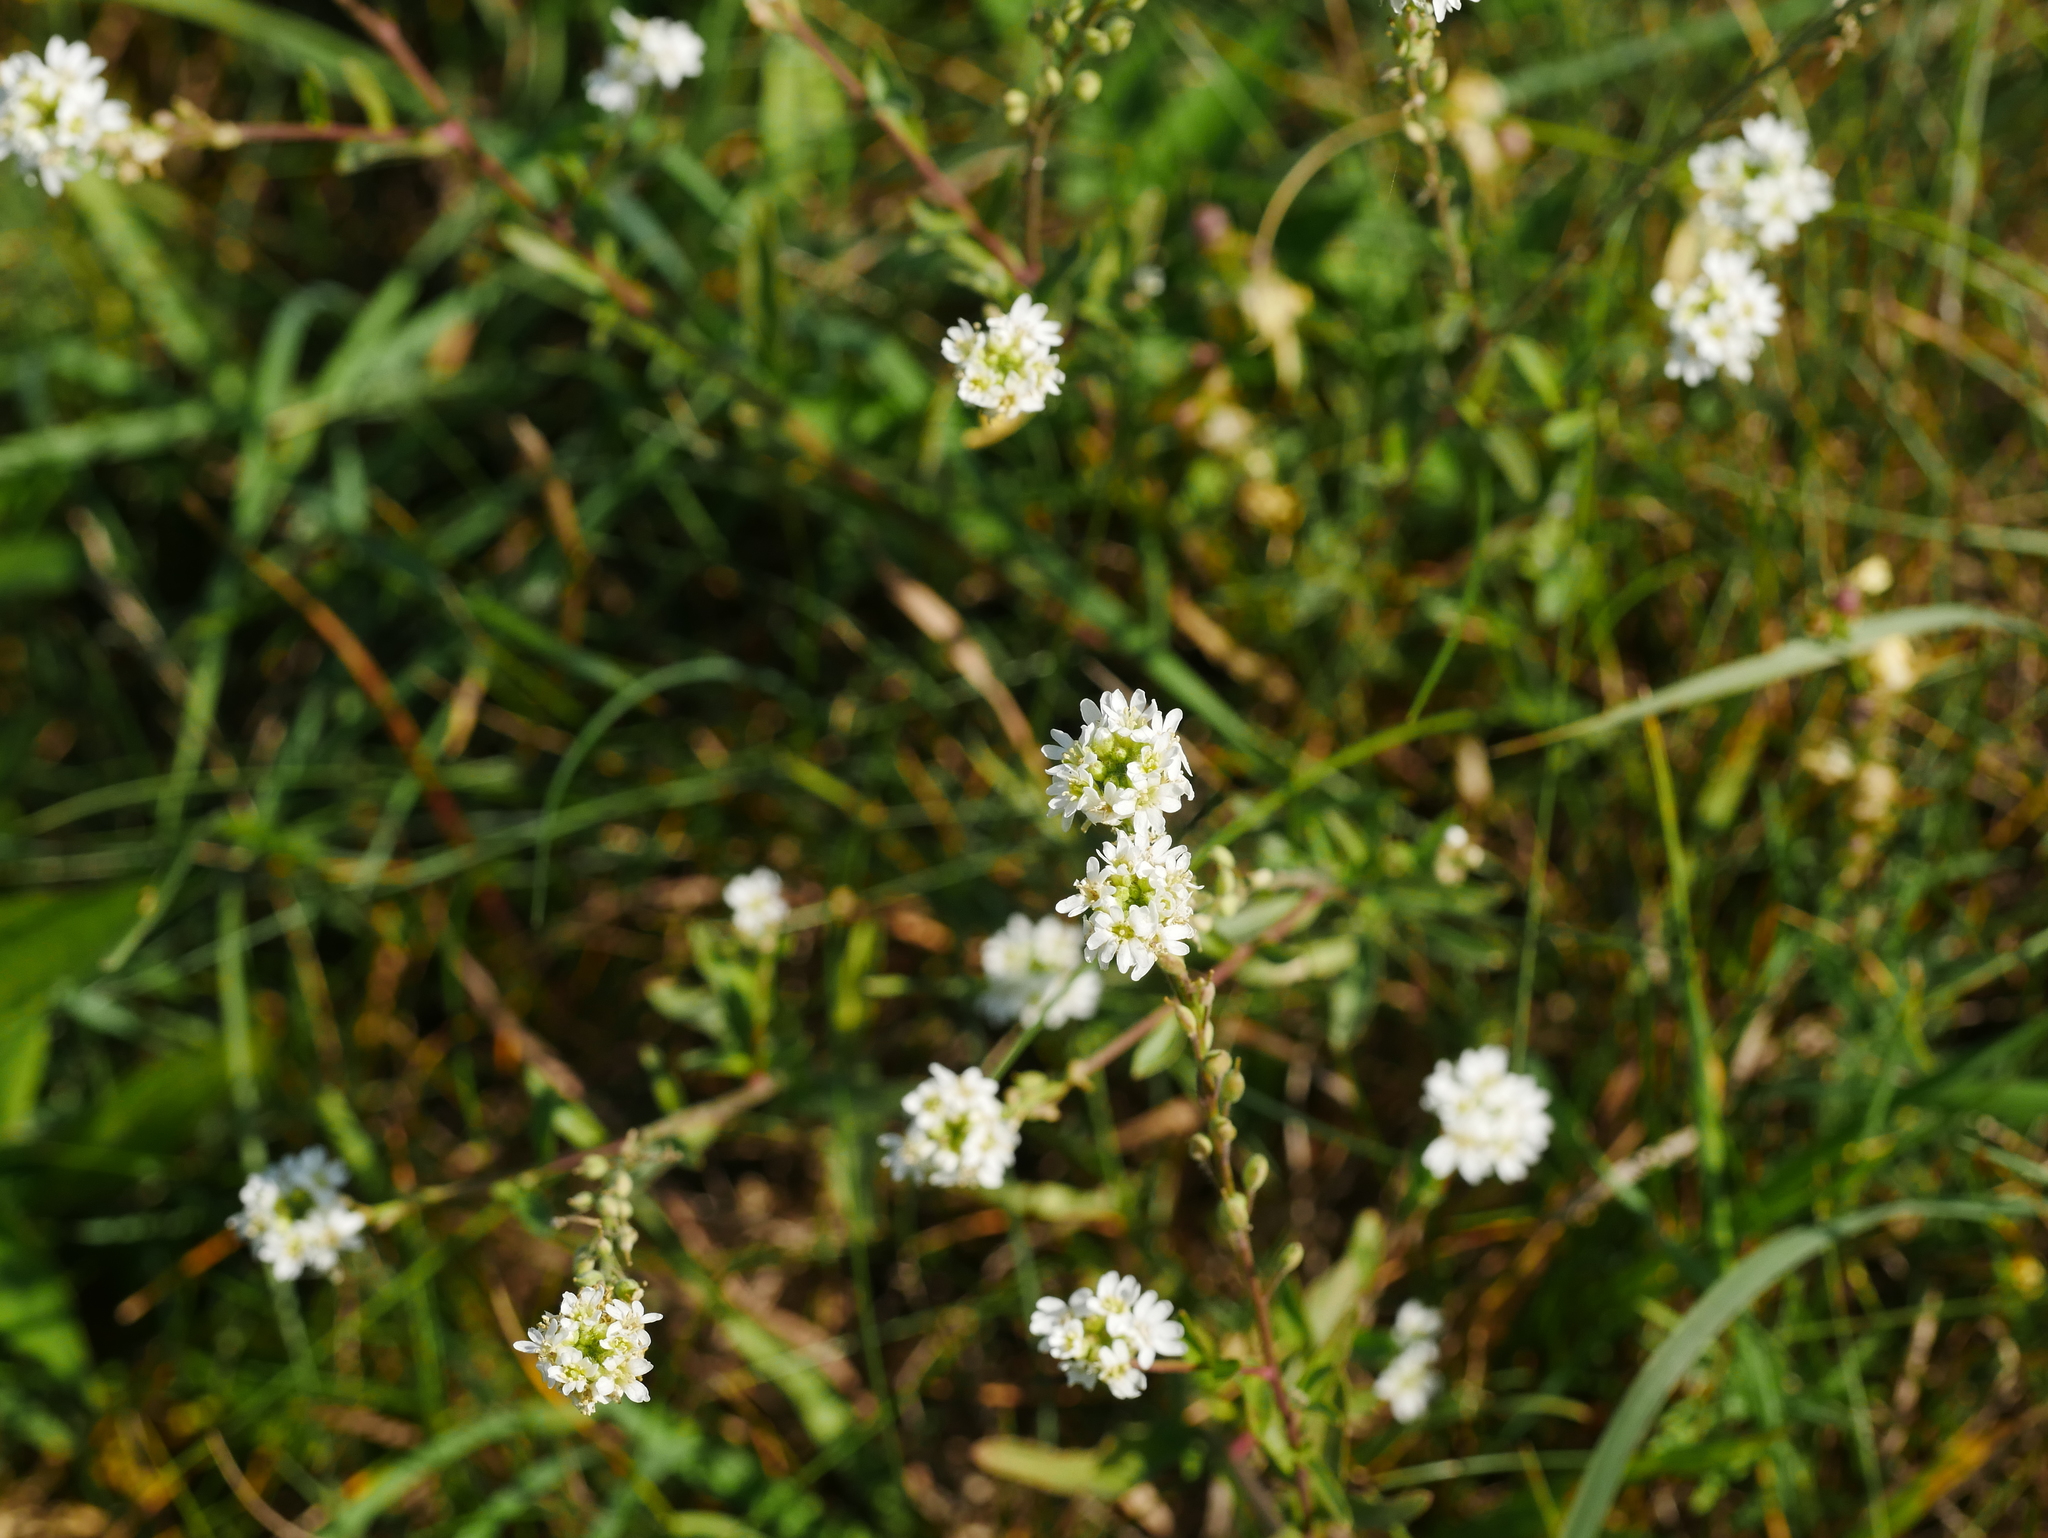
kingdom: Plantae
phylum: Tracheophyta
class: Magnoliopsida
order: Brassicales
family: Brassicaceae
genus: Berteroa
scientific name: Berteroa incana
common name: Hoary alison
